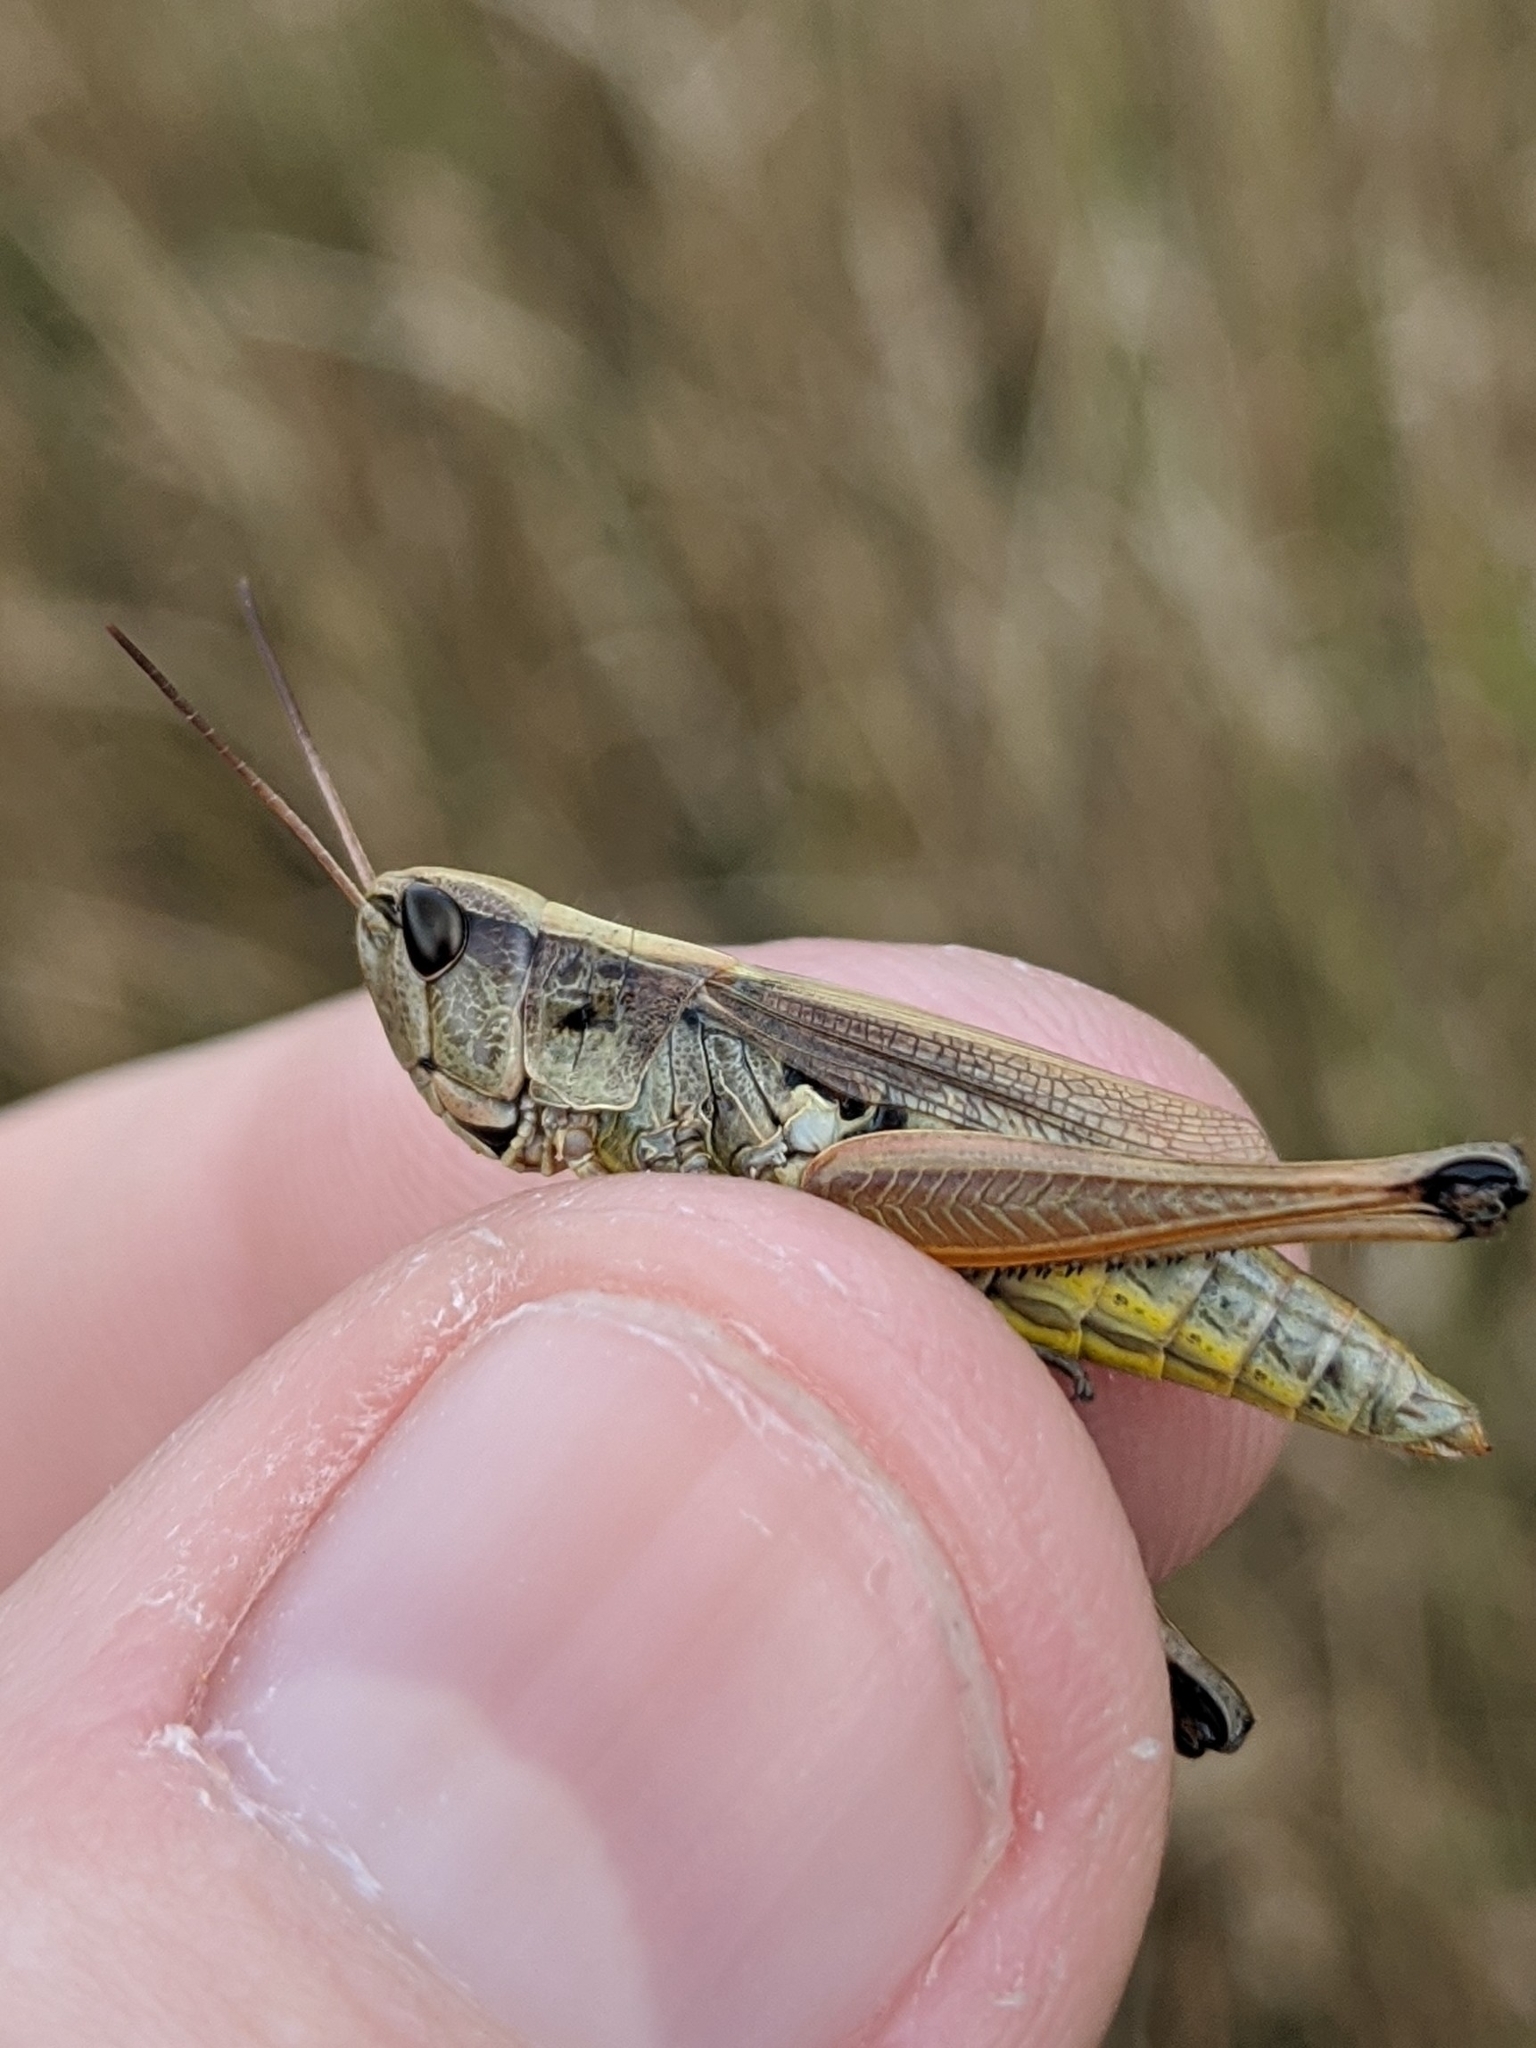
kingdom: Animalia
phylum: Arthropoda
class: Insecta
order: Orthoptera
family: Acrididae
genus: Pseudochorthippus
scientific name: Pseudochorthippus curtipennis
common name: Marsh meadow grasshopper
